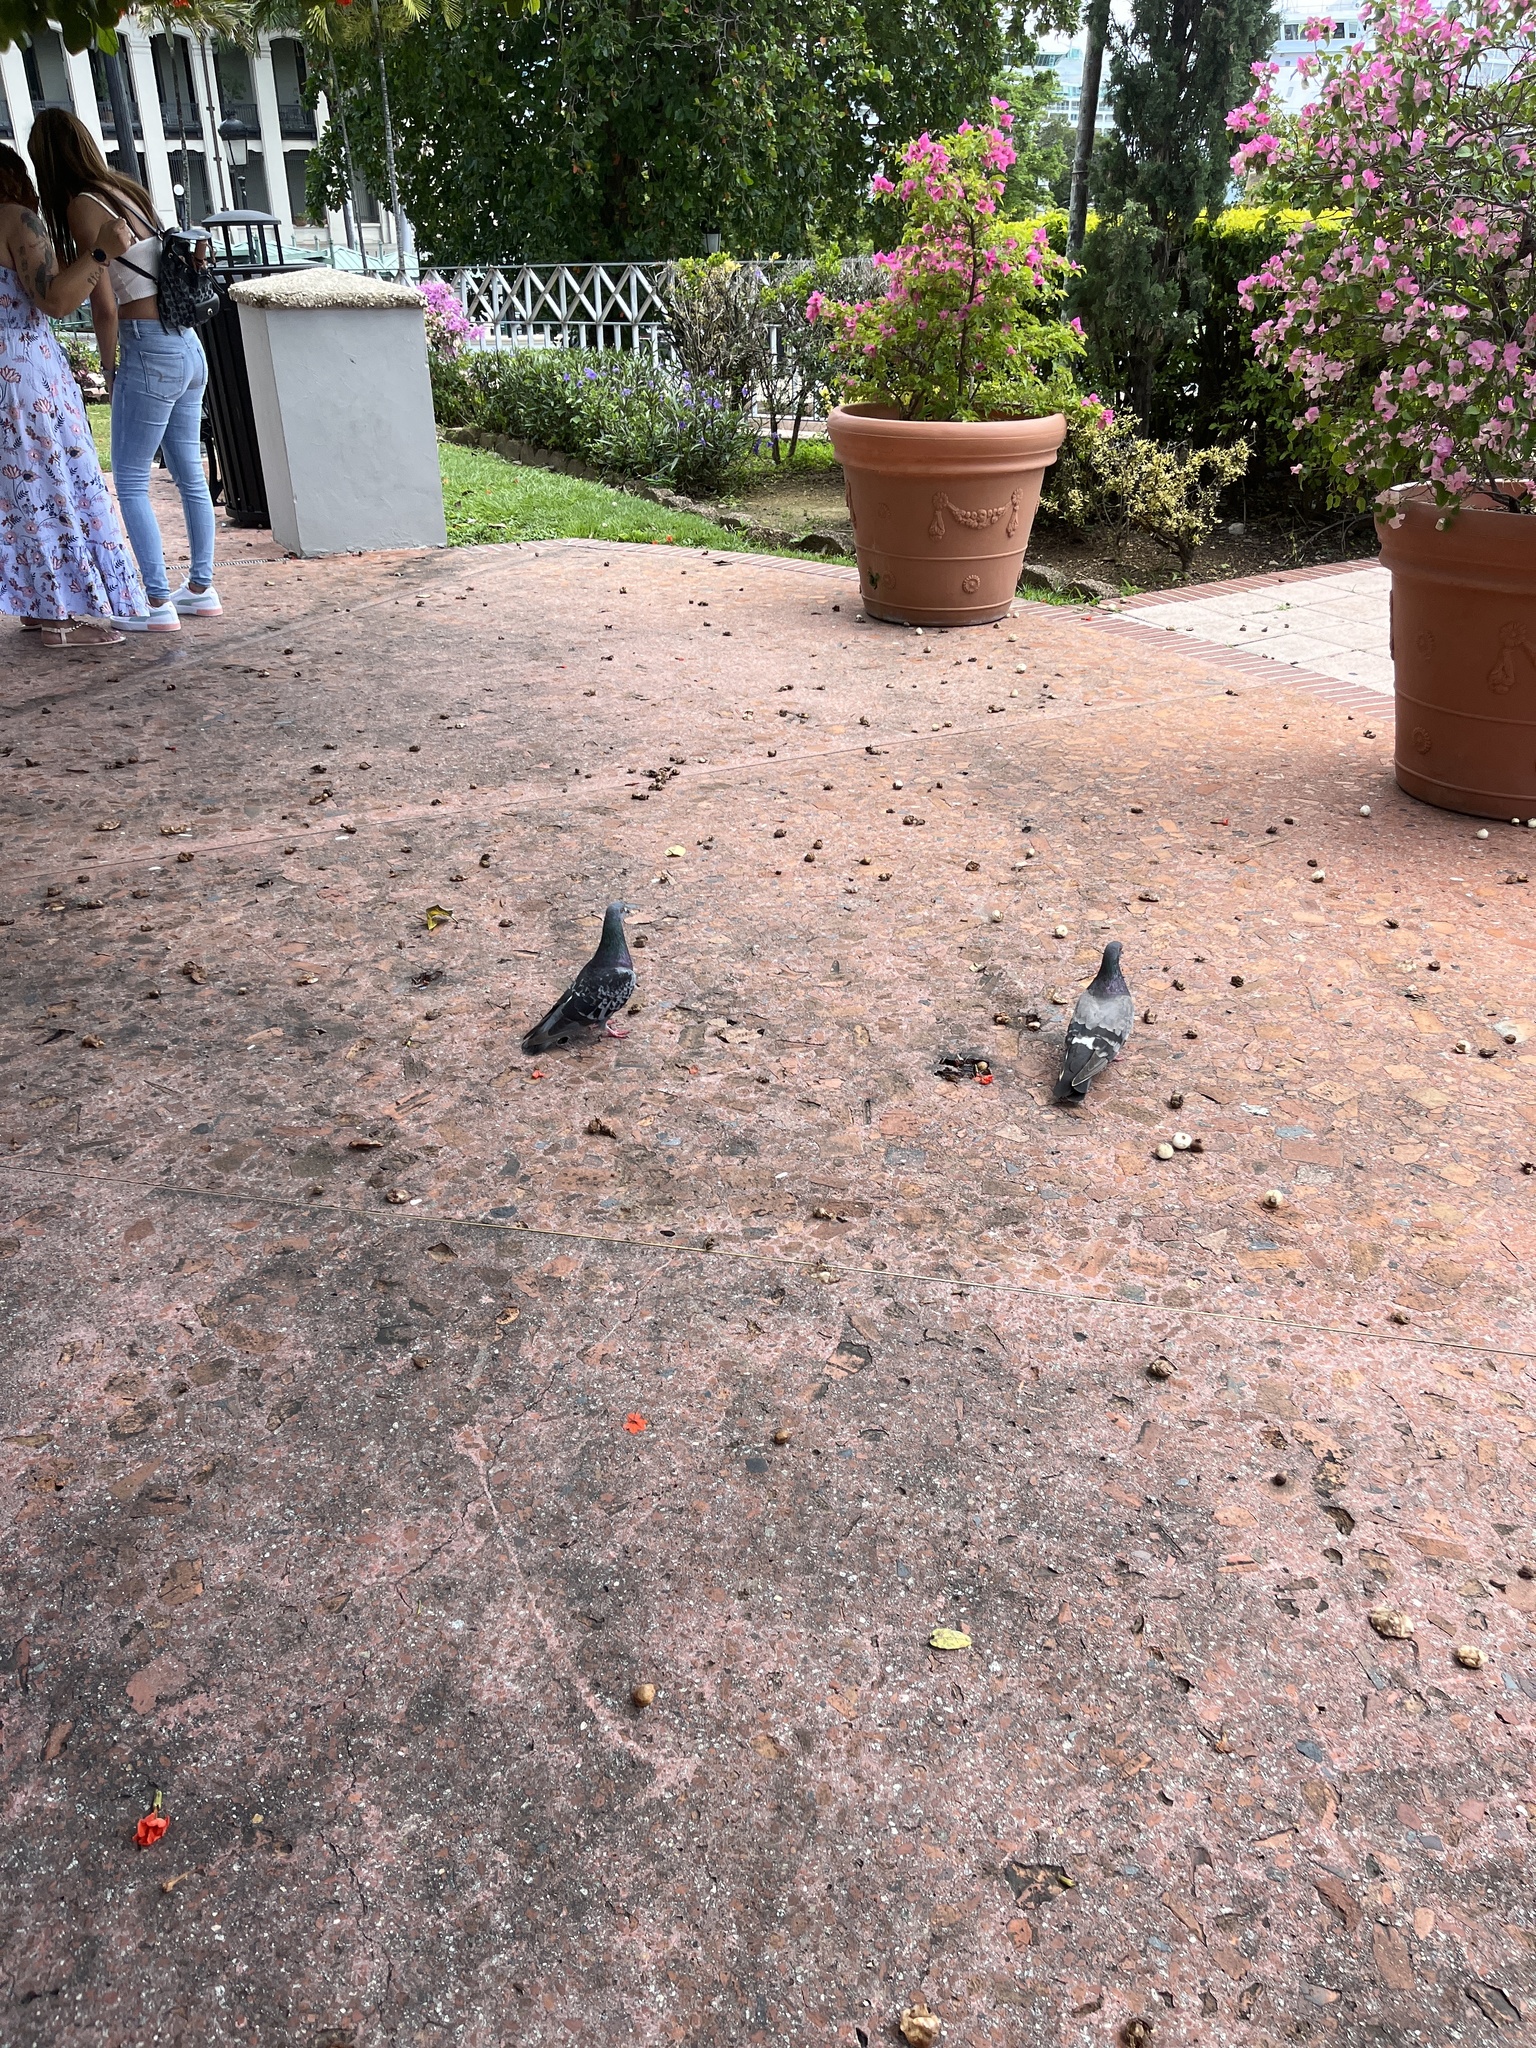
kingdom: Animalia
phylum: Chordata
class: Aves
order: Columbiformes
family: Columbidae
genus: Columba
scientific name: Columba livia
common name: Rock pigeon
